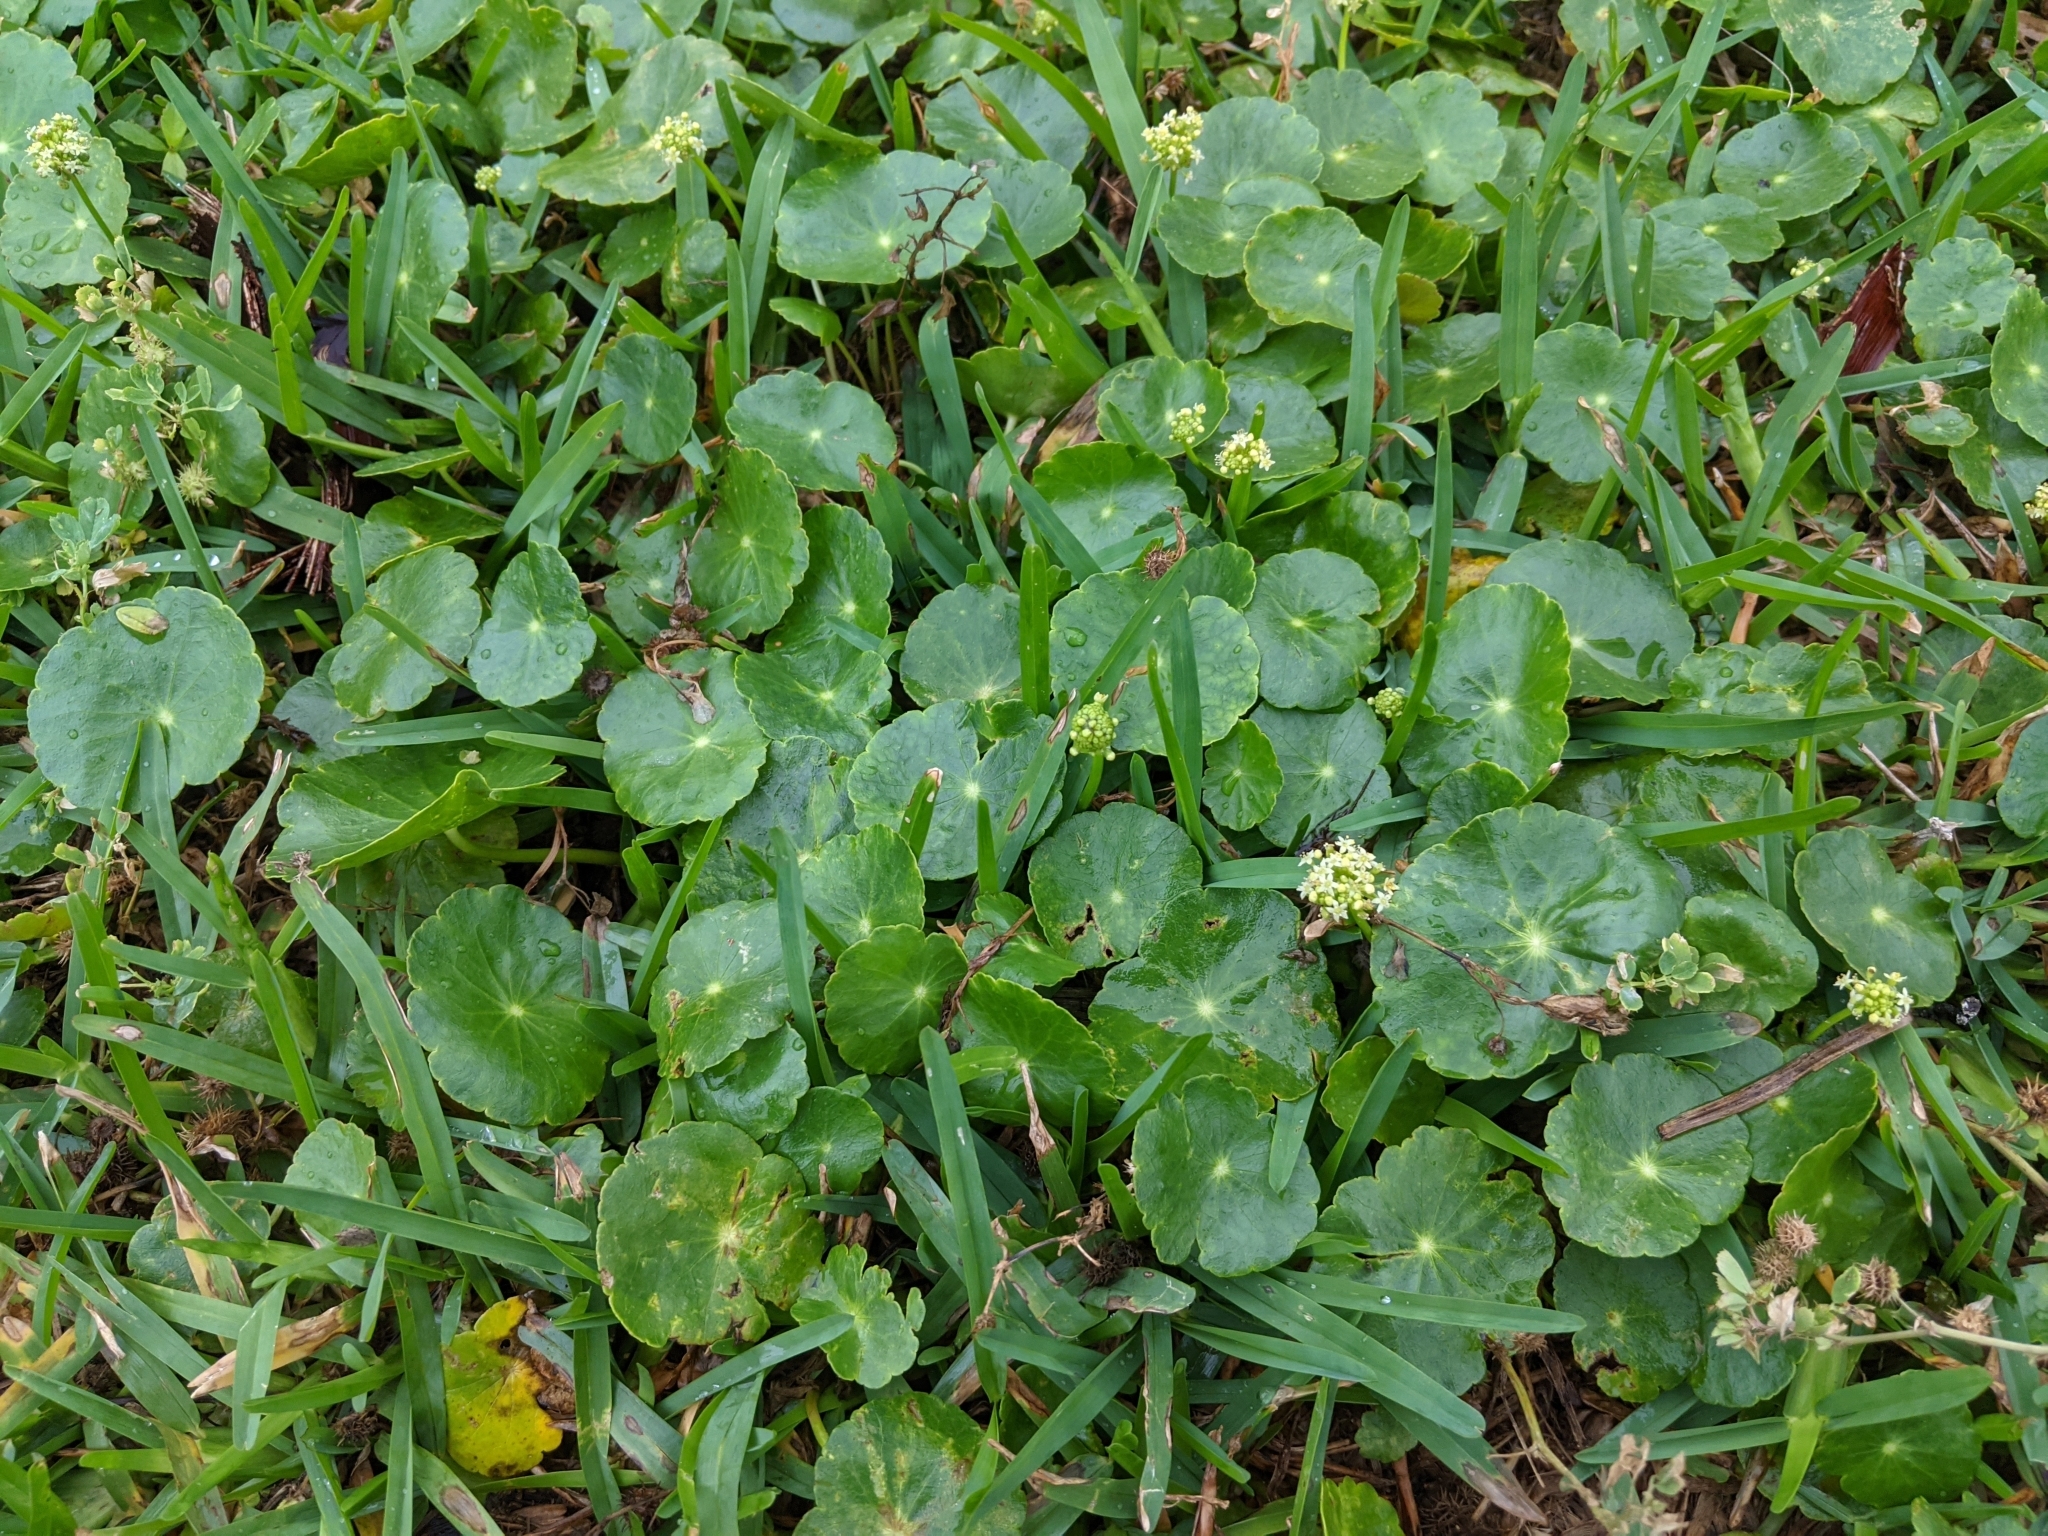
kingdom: Plantae
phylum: Tracheophyta
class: Magnoliopsida
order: Apiales
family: Araliaceae
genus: Hydrocotyle
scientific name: Hydrocotyle umbellata
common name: Water pennywort
